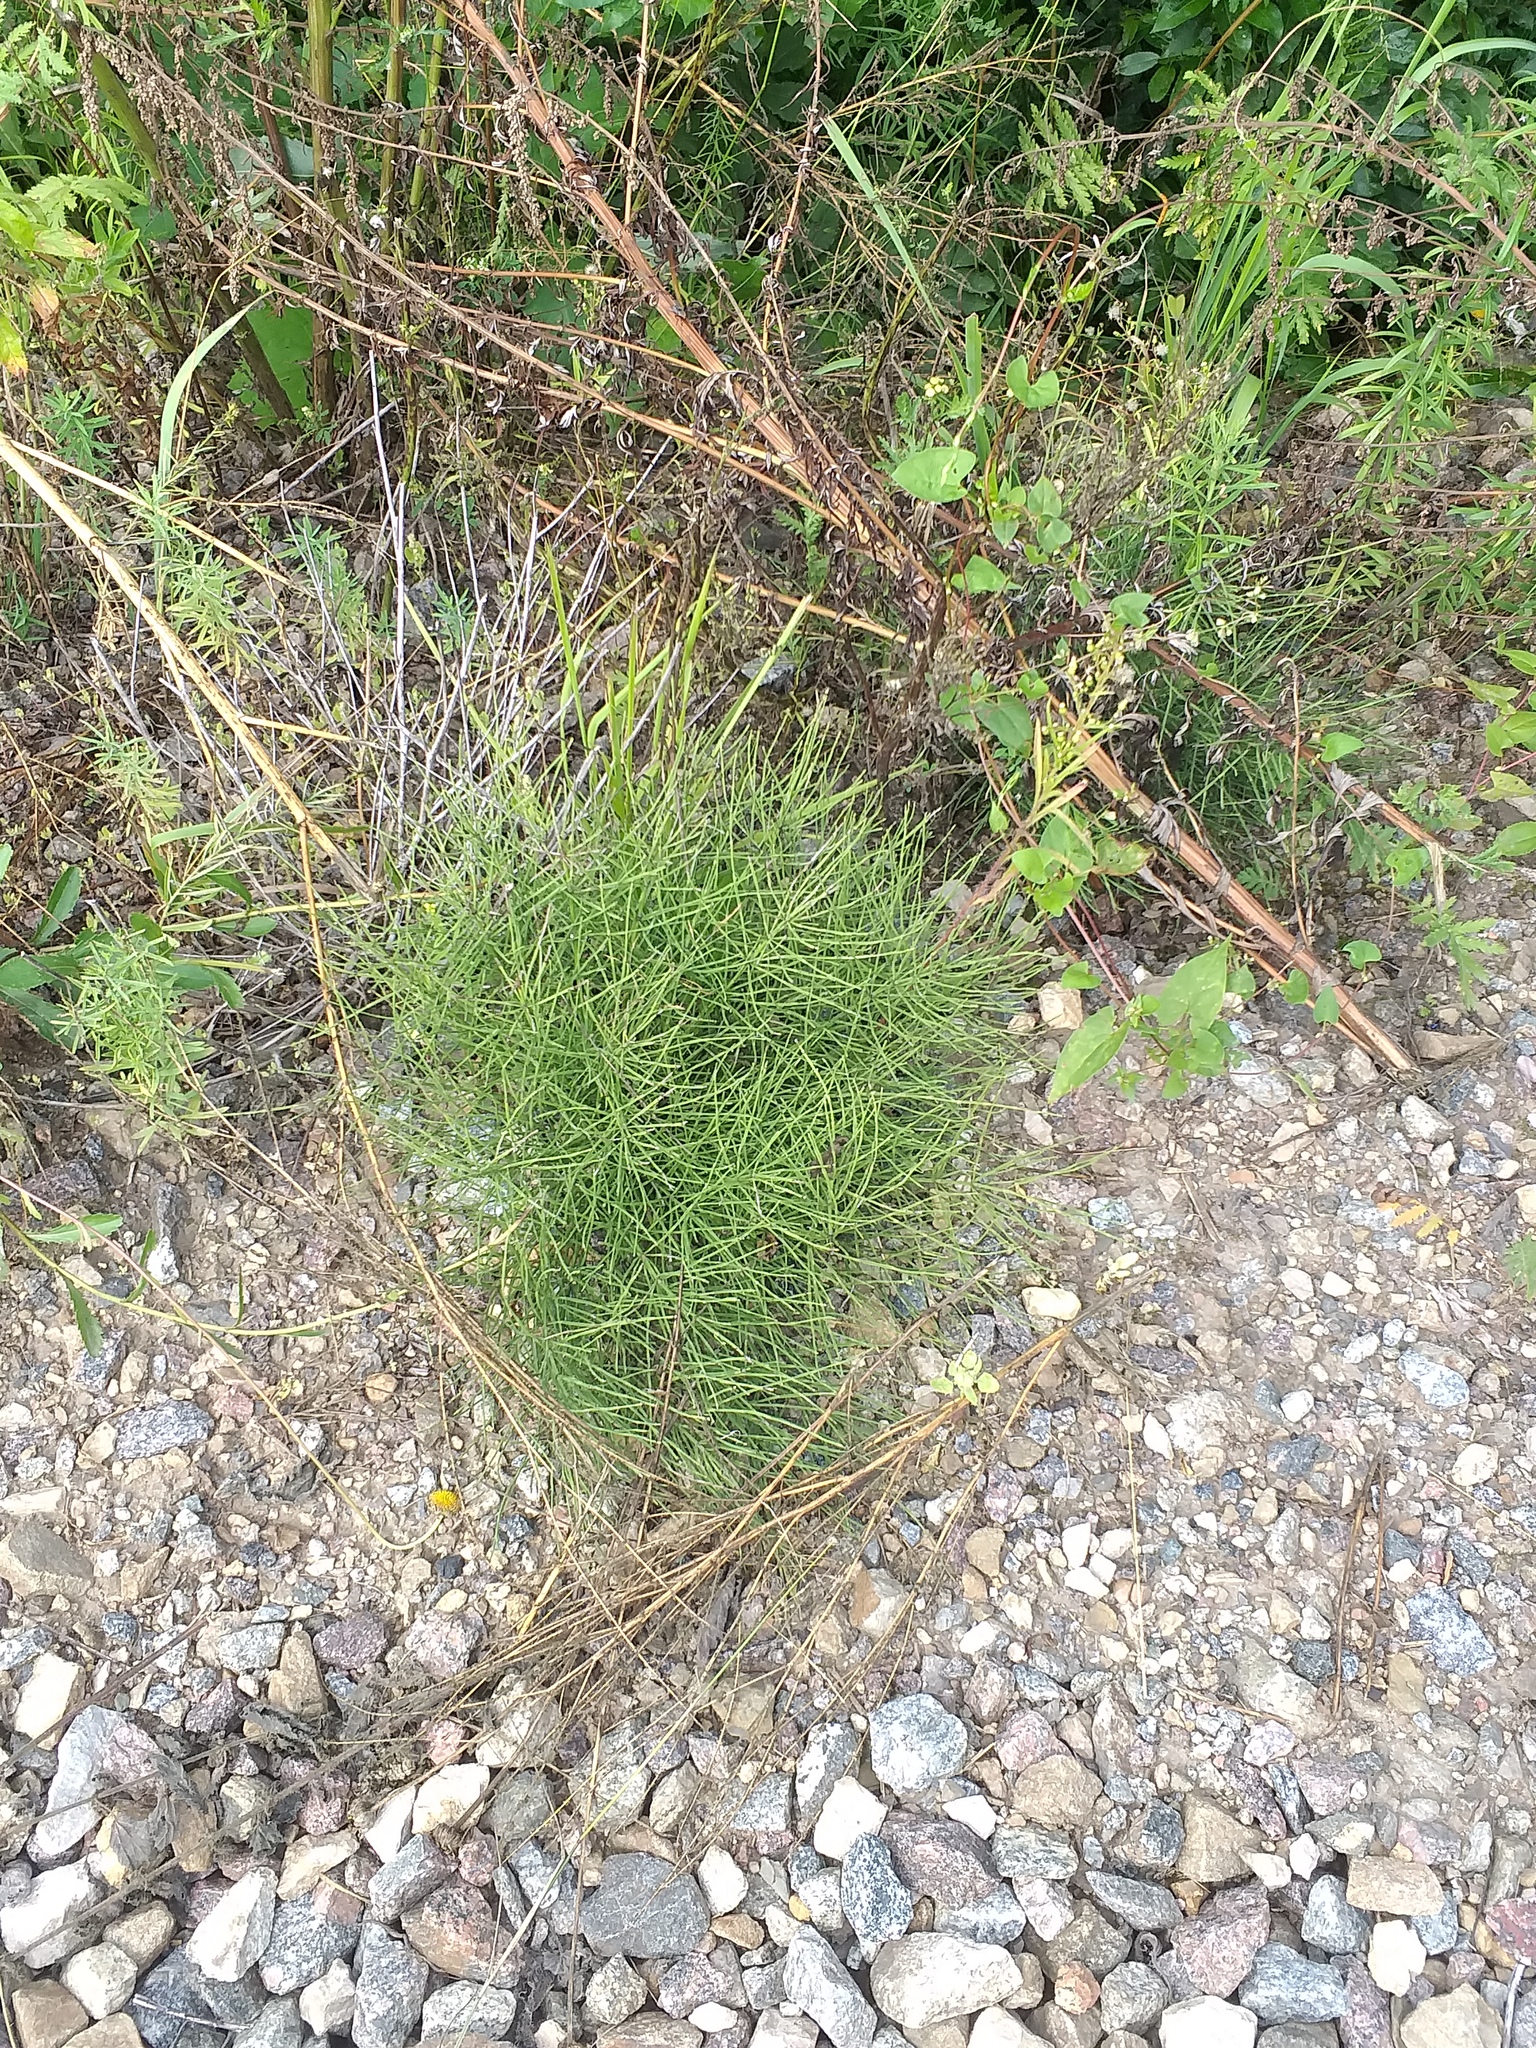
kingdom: Plantae
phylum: Tracheophyta
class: Polypodiopsida
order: Equisetales
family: Equisetaceae
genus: Equisetum
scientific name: Equisetum arvense
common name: Field horsetail
